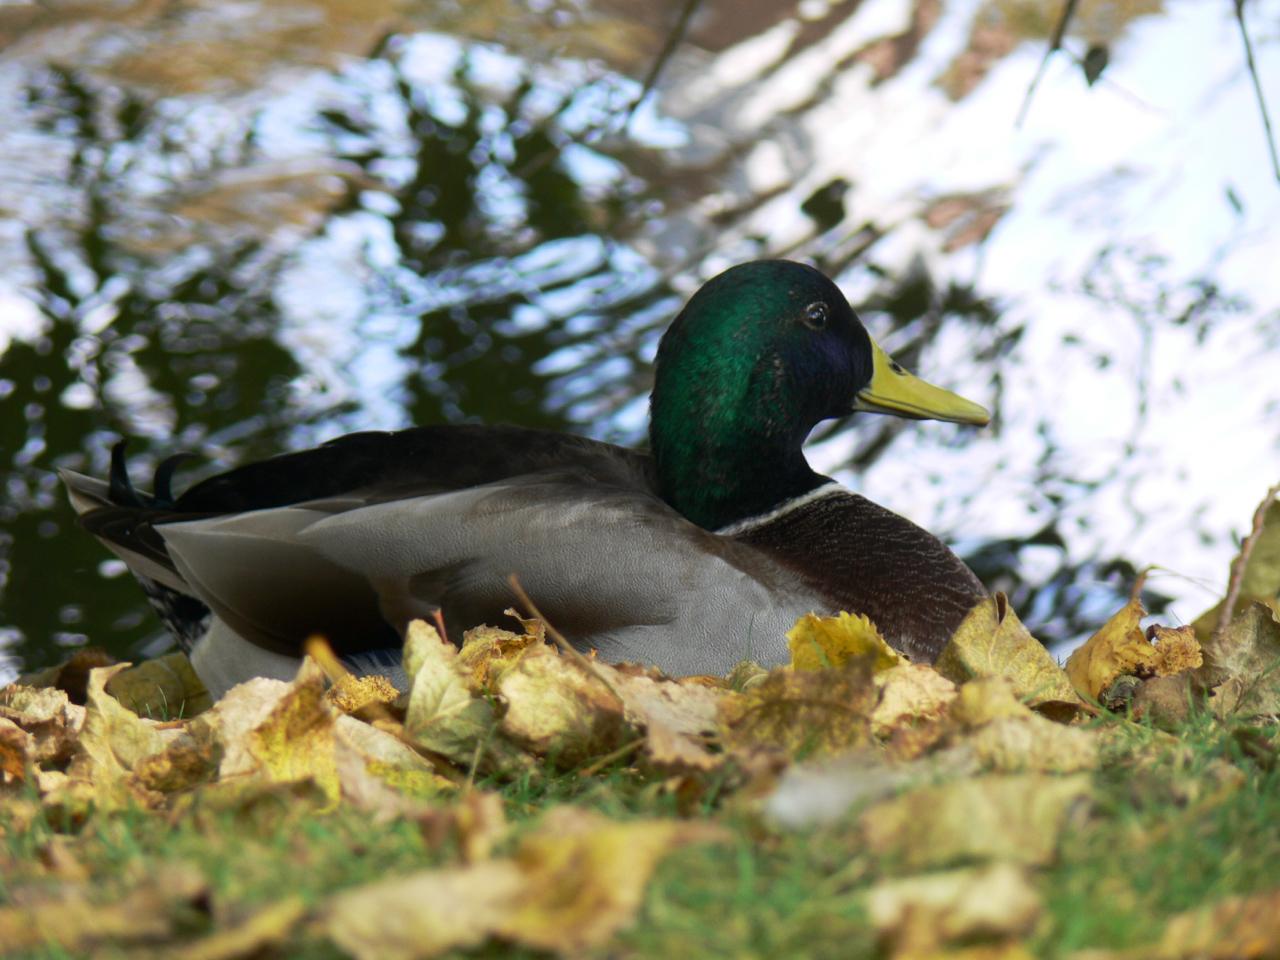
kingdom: Animalia
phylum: Chordata
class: Aves
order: Anseriformes
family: Anatidae
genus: Anas
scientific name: Anas platyrhynchos
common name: Mallard
